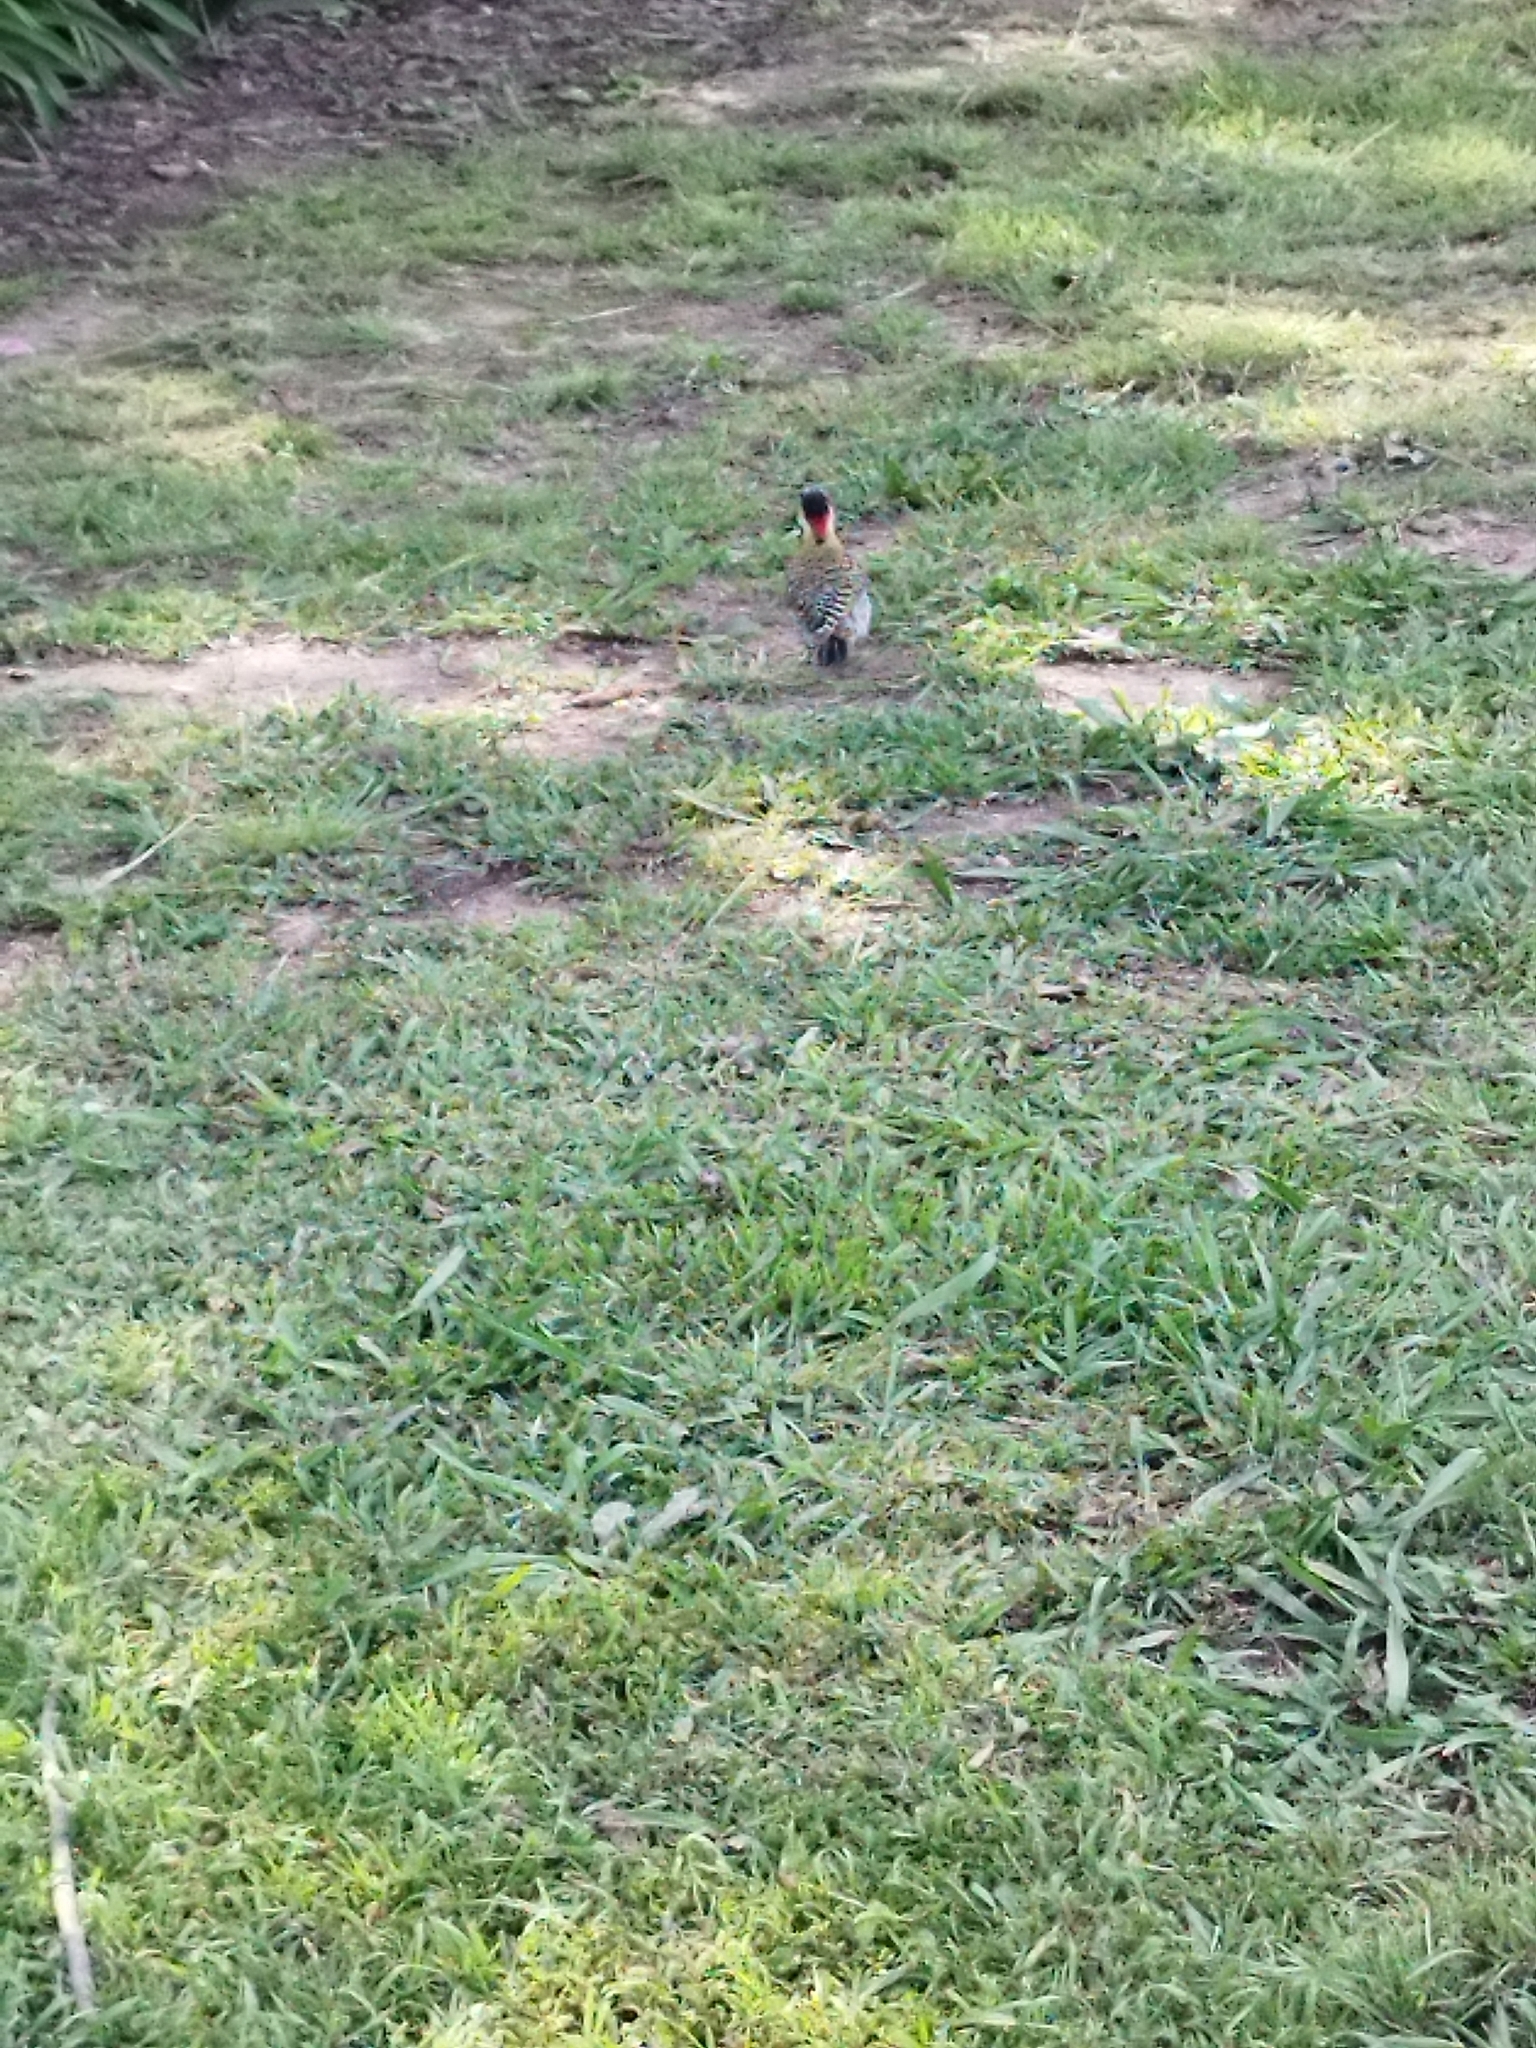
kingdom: Animalia
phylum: Chordata
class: Aves
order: Piciformes
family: Picidae
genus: Colaptes
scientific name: Colaptes melanochloros
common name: Green-barred woodpecker
